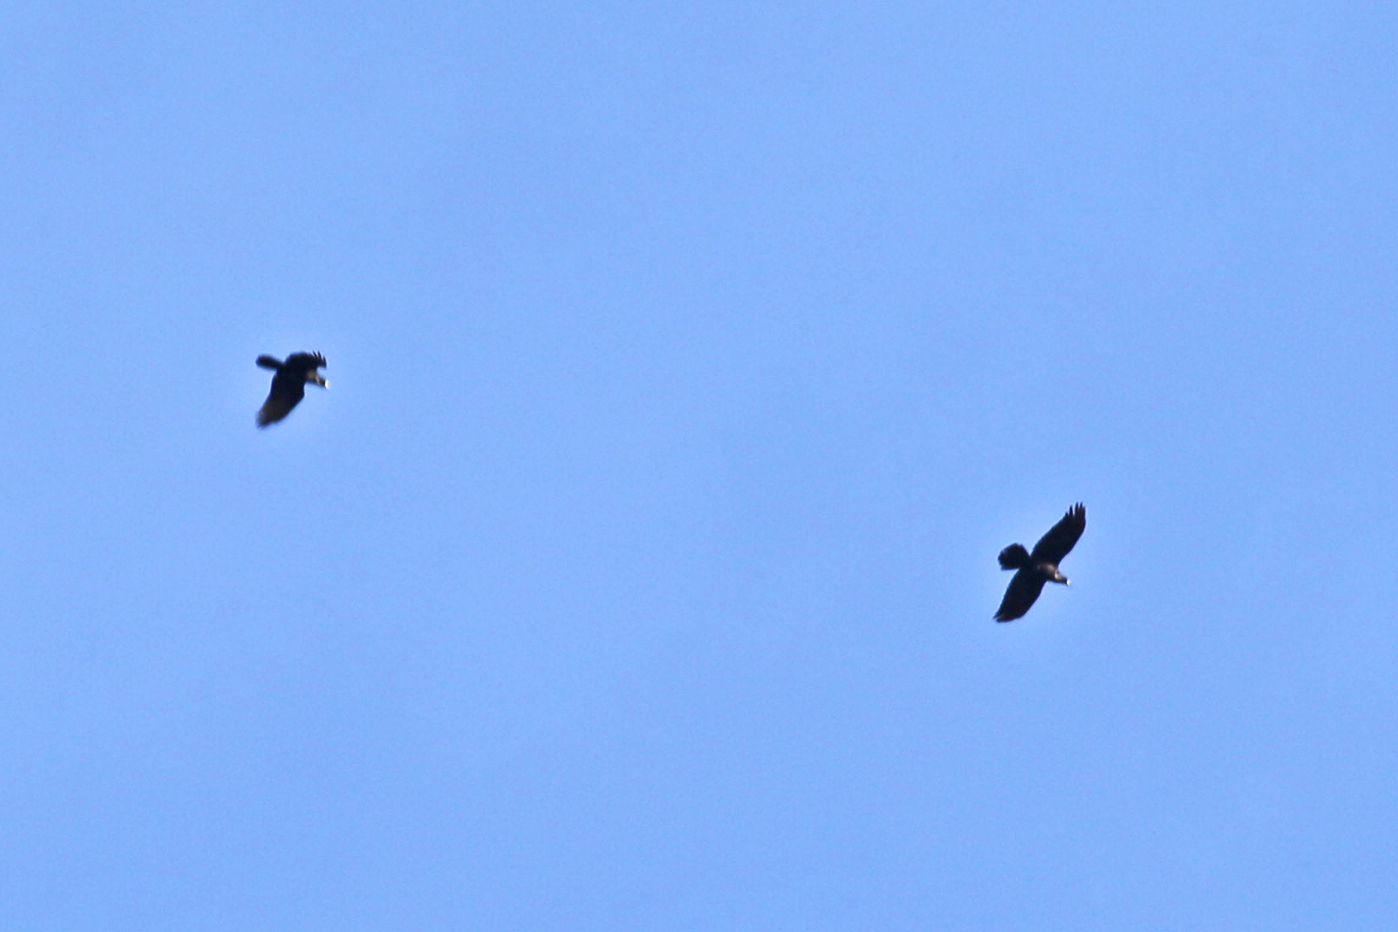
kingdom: Animalia
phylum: Chordata
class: Aves
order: Passeriformes
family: Corvidae
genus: Corvus
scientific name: Corvus corax
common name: Common raven
